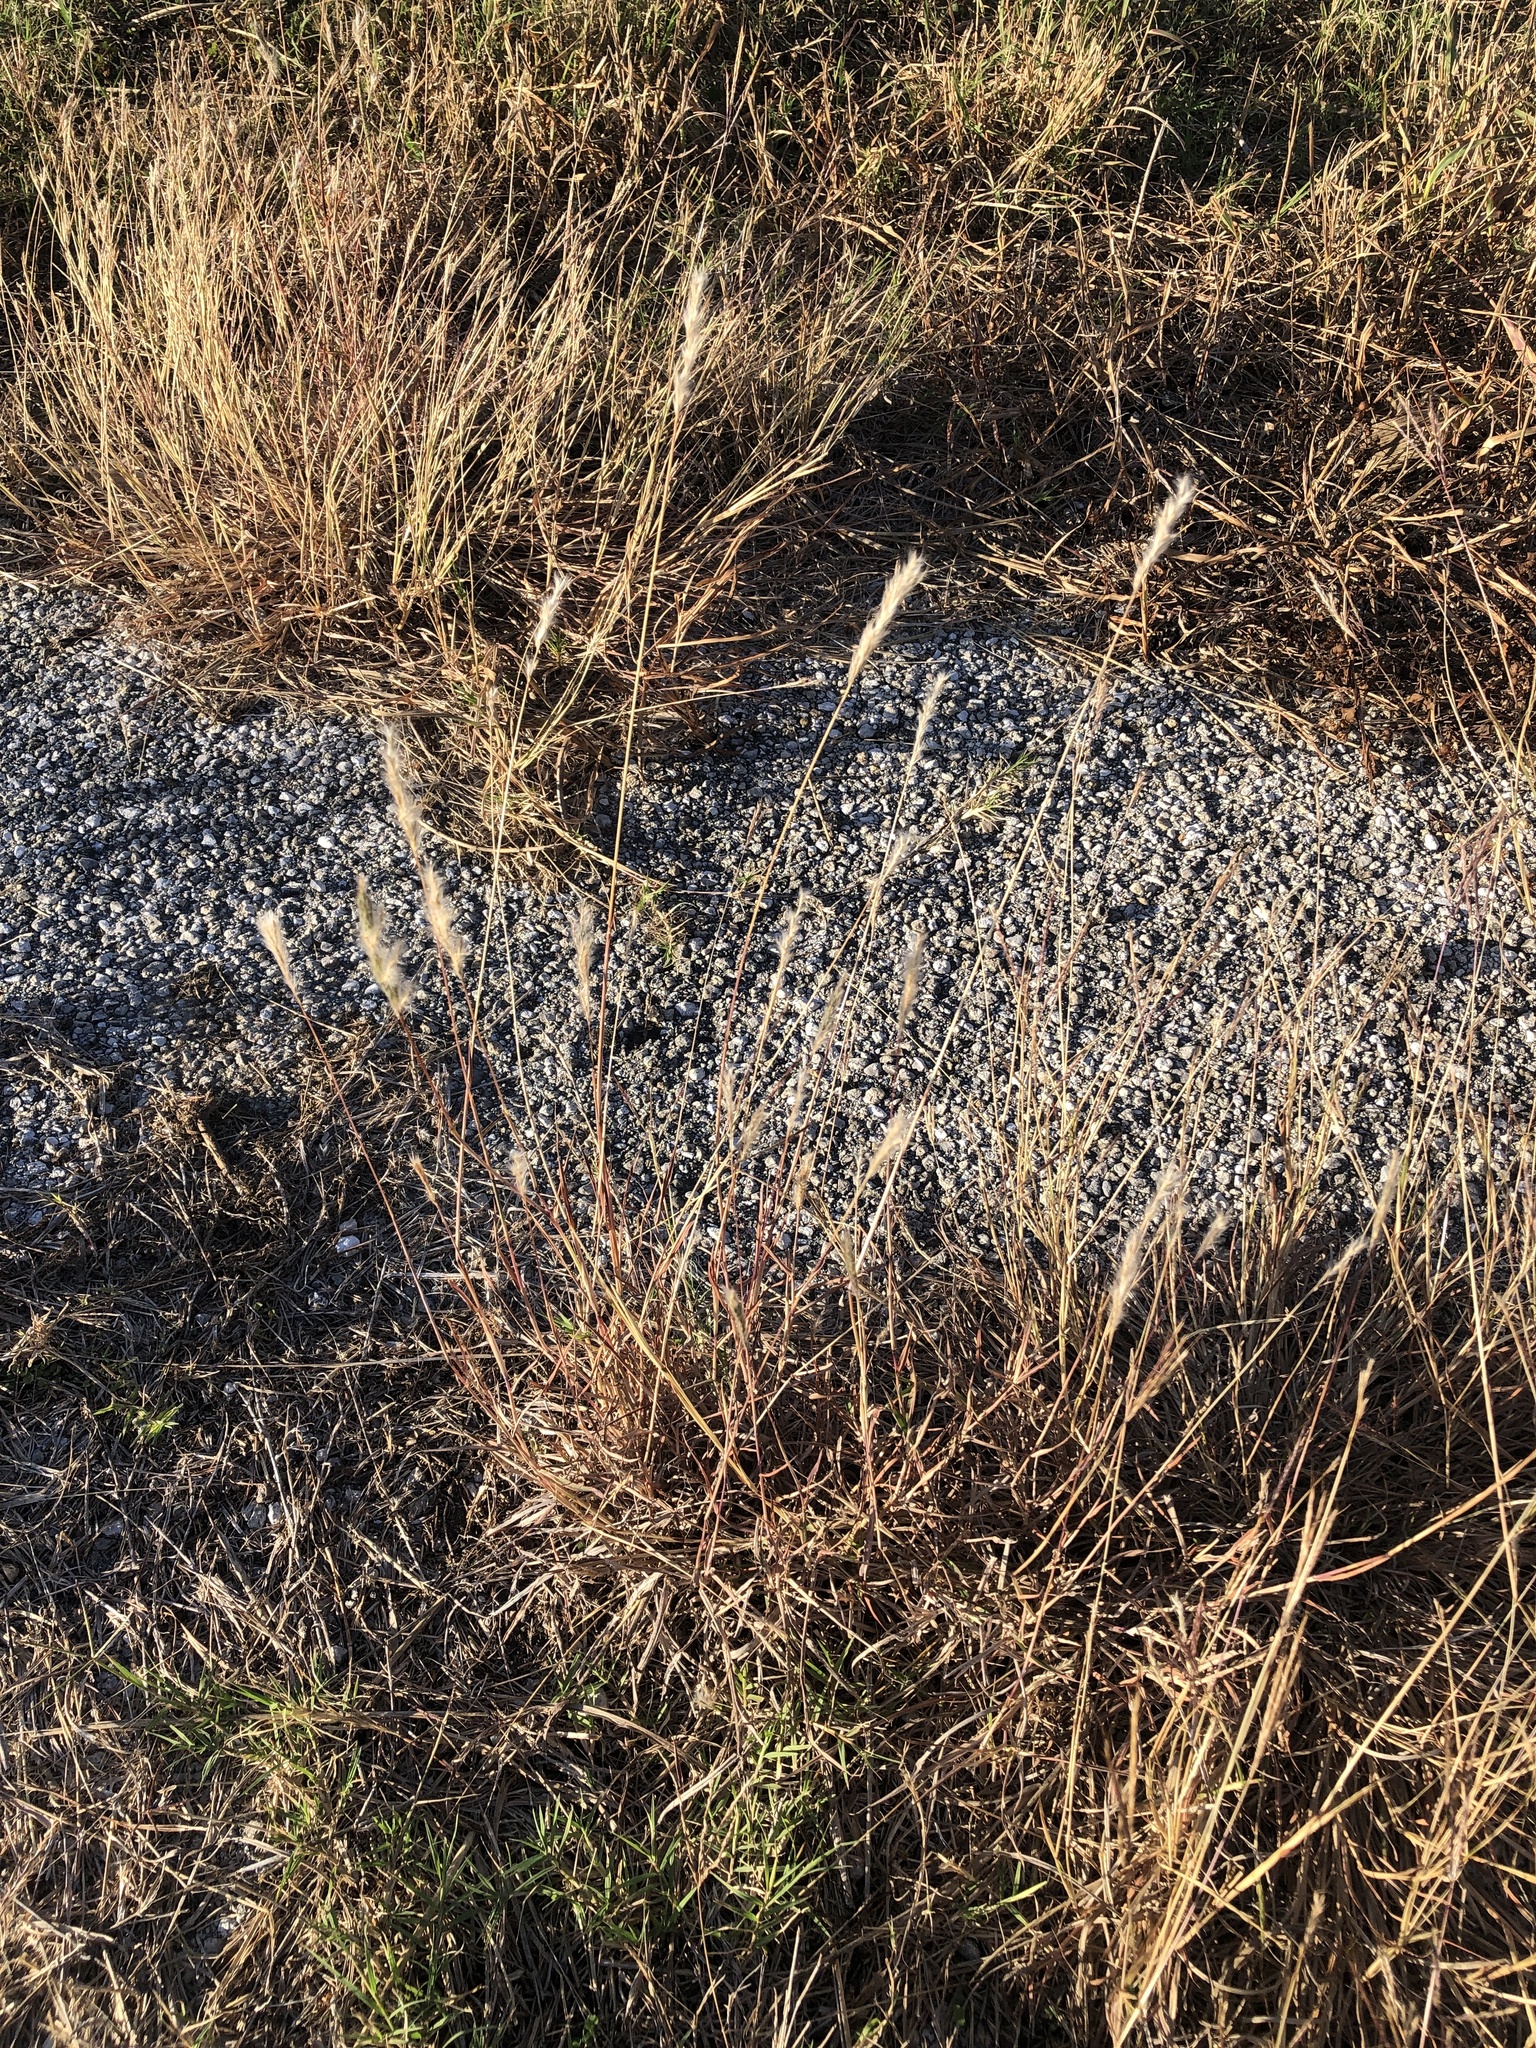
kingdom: Plantae
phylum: Tracheophyta
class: Liliopsida
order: Poales
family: Poaceae
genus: Bothriochloa
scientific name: Bothriochloa torreyana
